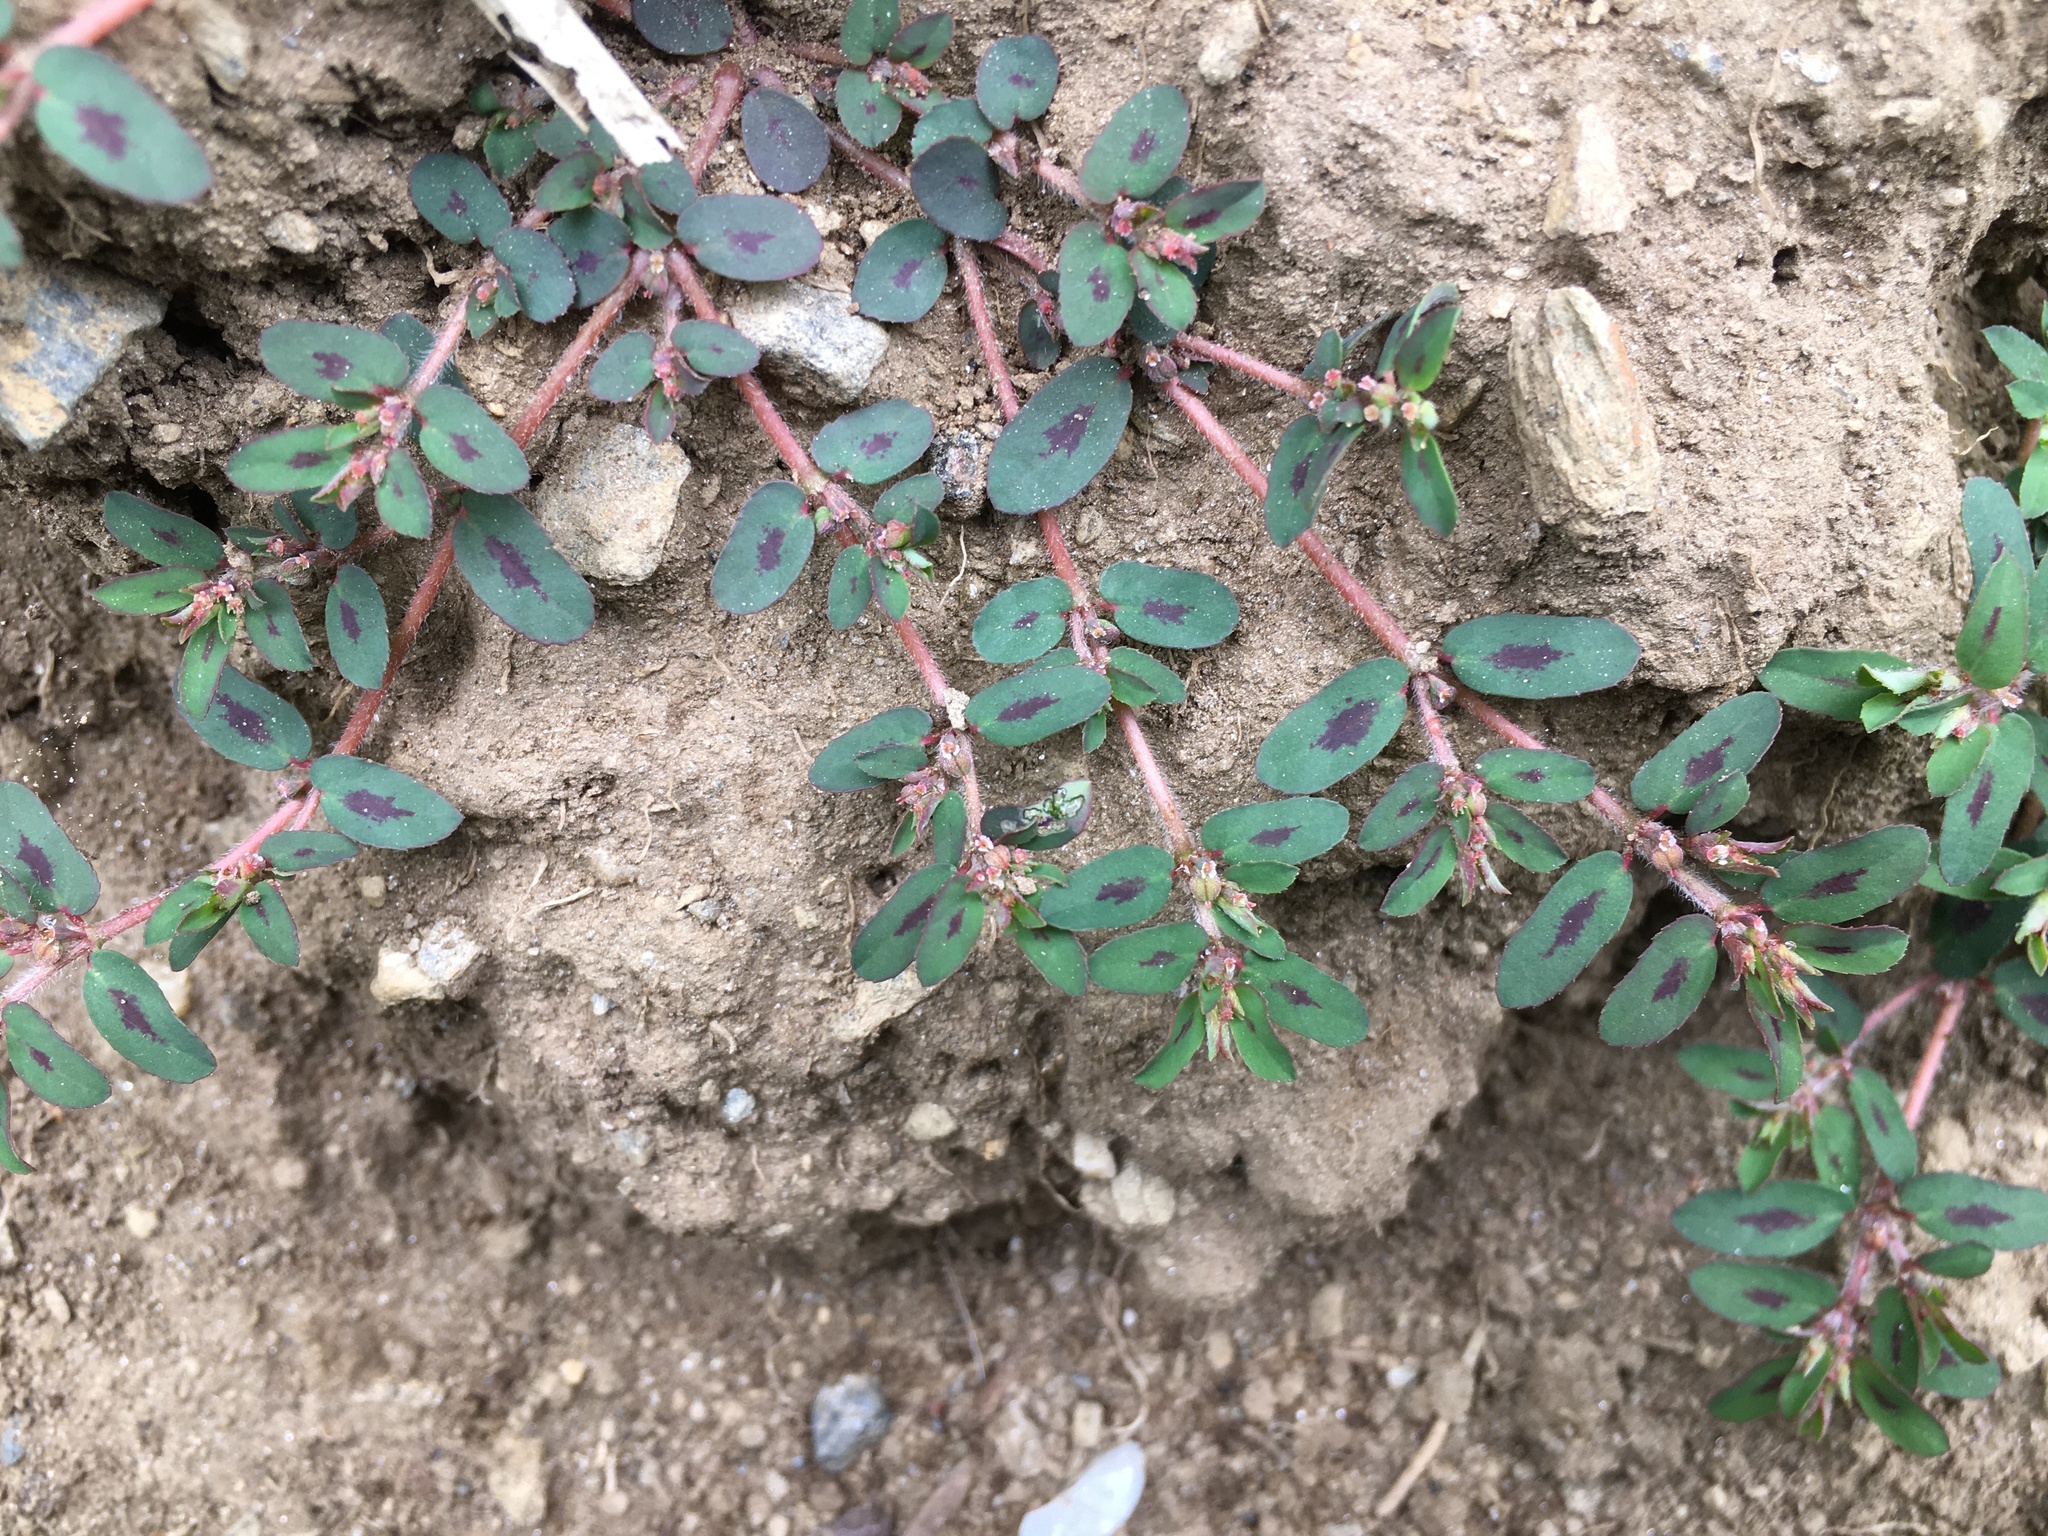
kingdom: Plantae
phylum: Tracheophyta
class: Magnoliopsida
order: Malpighiales
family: Euphorbiaceae
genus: Euphorbia
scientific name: Euphorbia maculata
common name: Spotted spurge
